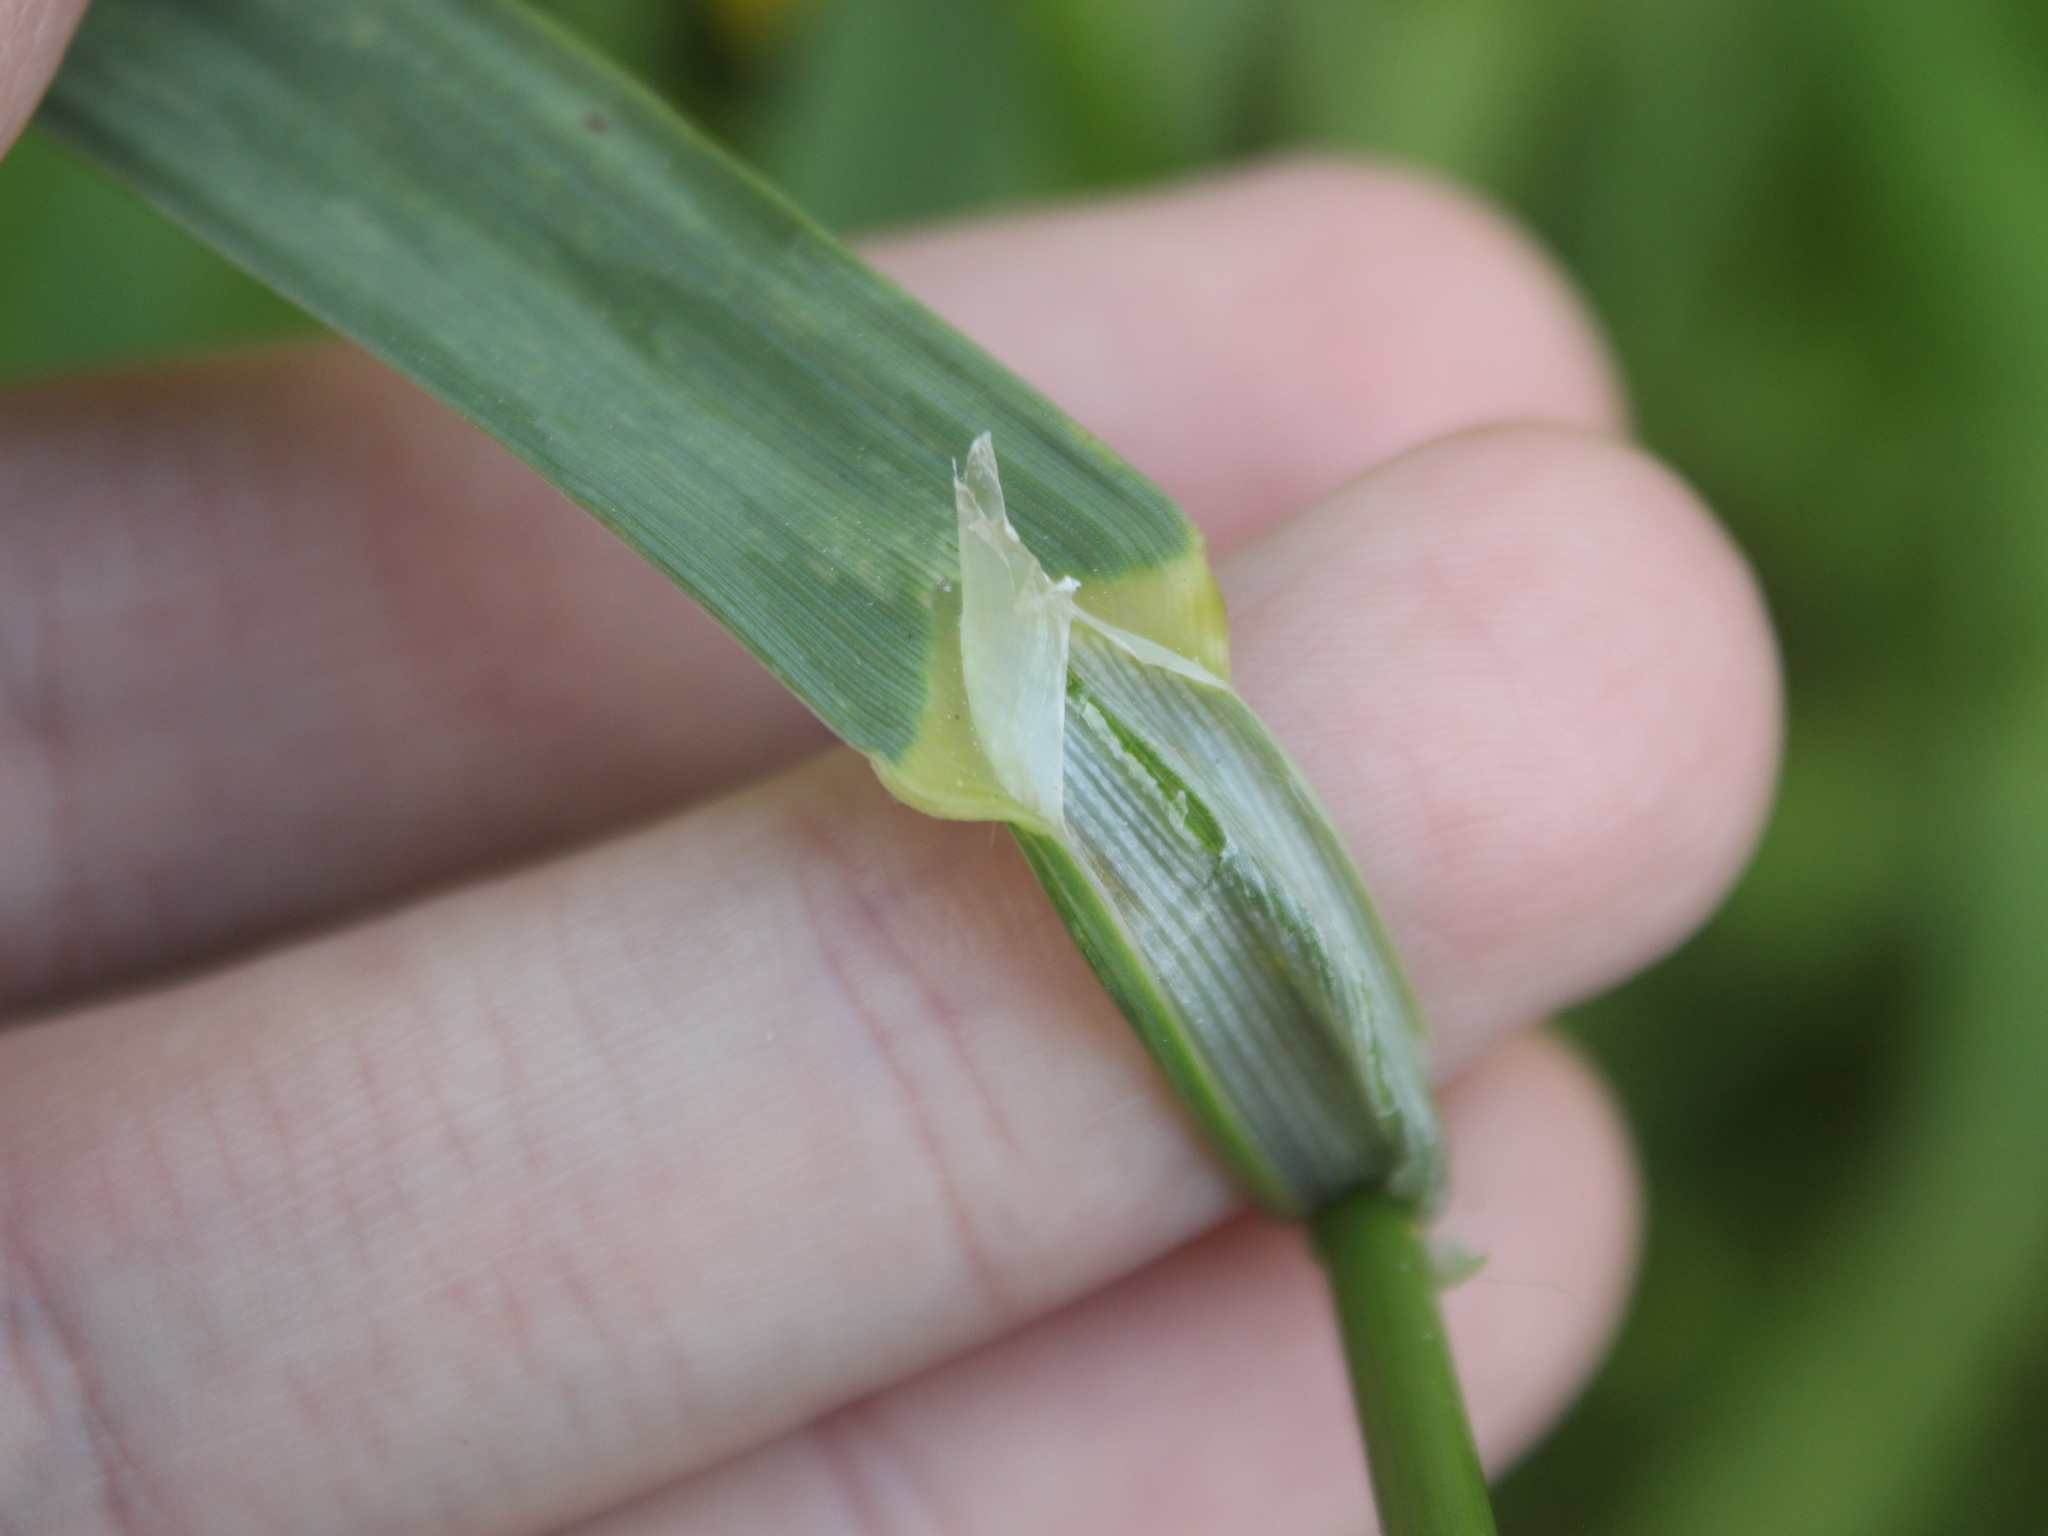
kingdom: Plantae
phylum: Tracheophyta
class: Liliopsida
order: Poales
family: Poaceae
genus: Bromus
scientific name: Bromus catharticus
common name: Rescuegrass
